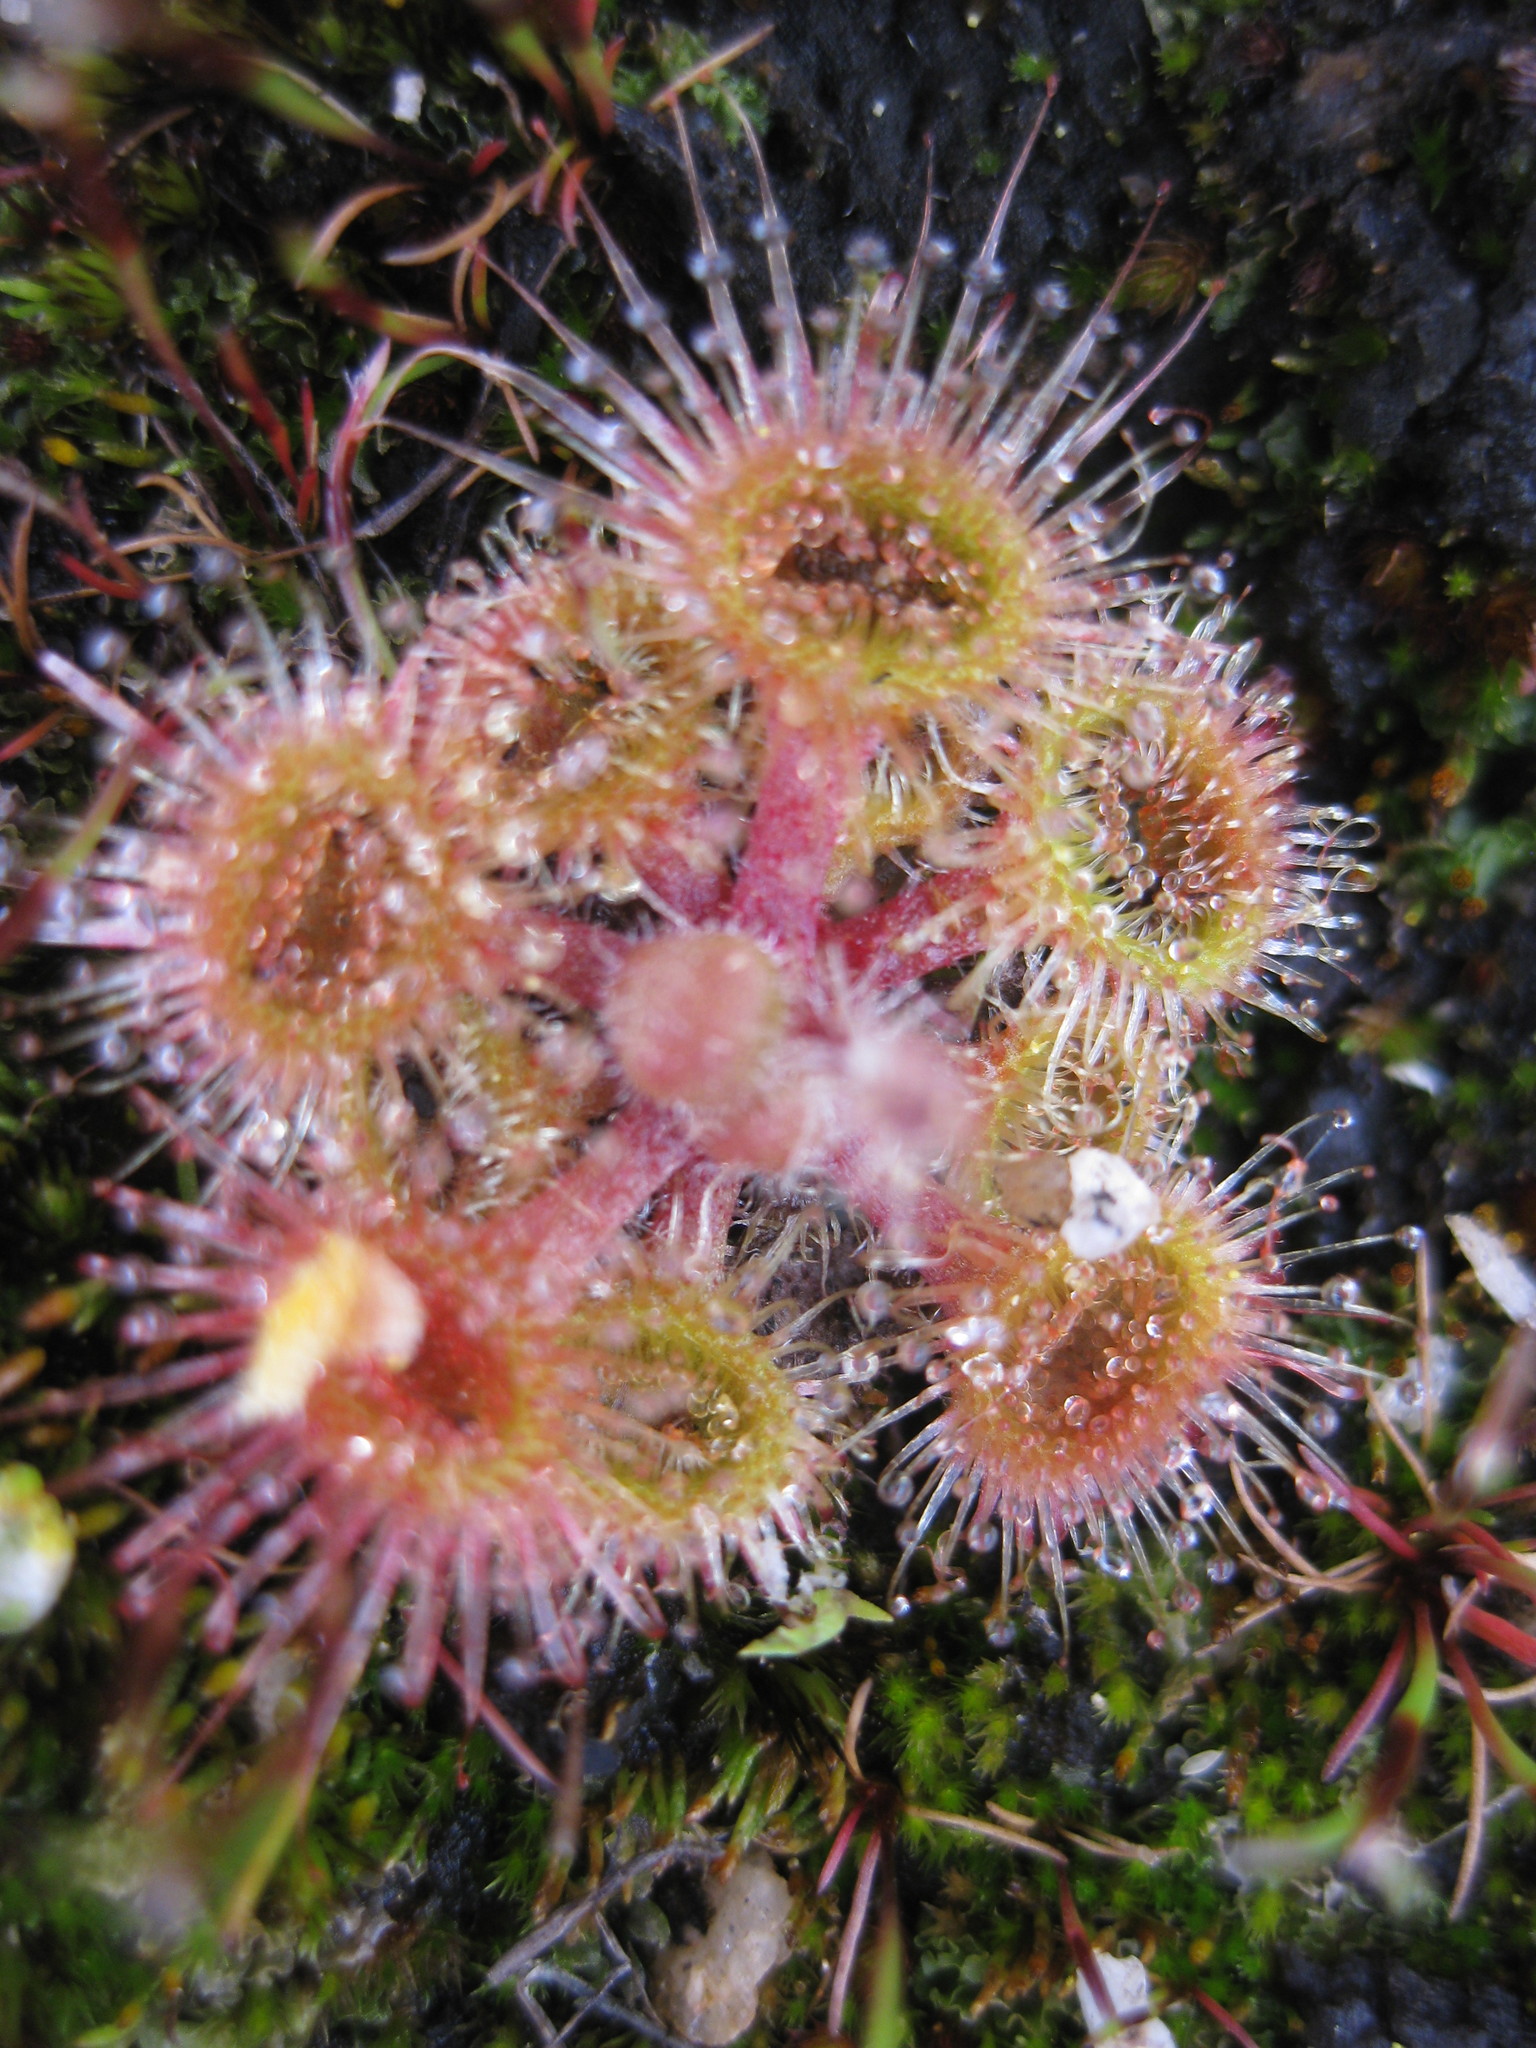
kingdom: Plantae
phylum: Tracheophyta
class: Magnoliopsida
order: Caryophyllales
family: Droseraceae
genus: Drosera
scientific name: Drosera glanduligera
